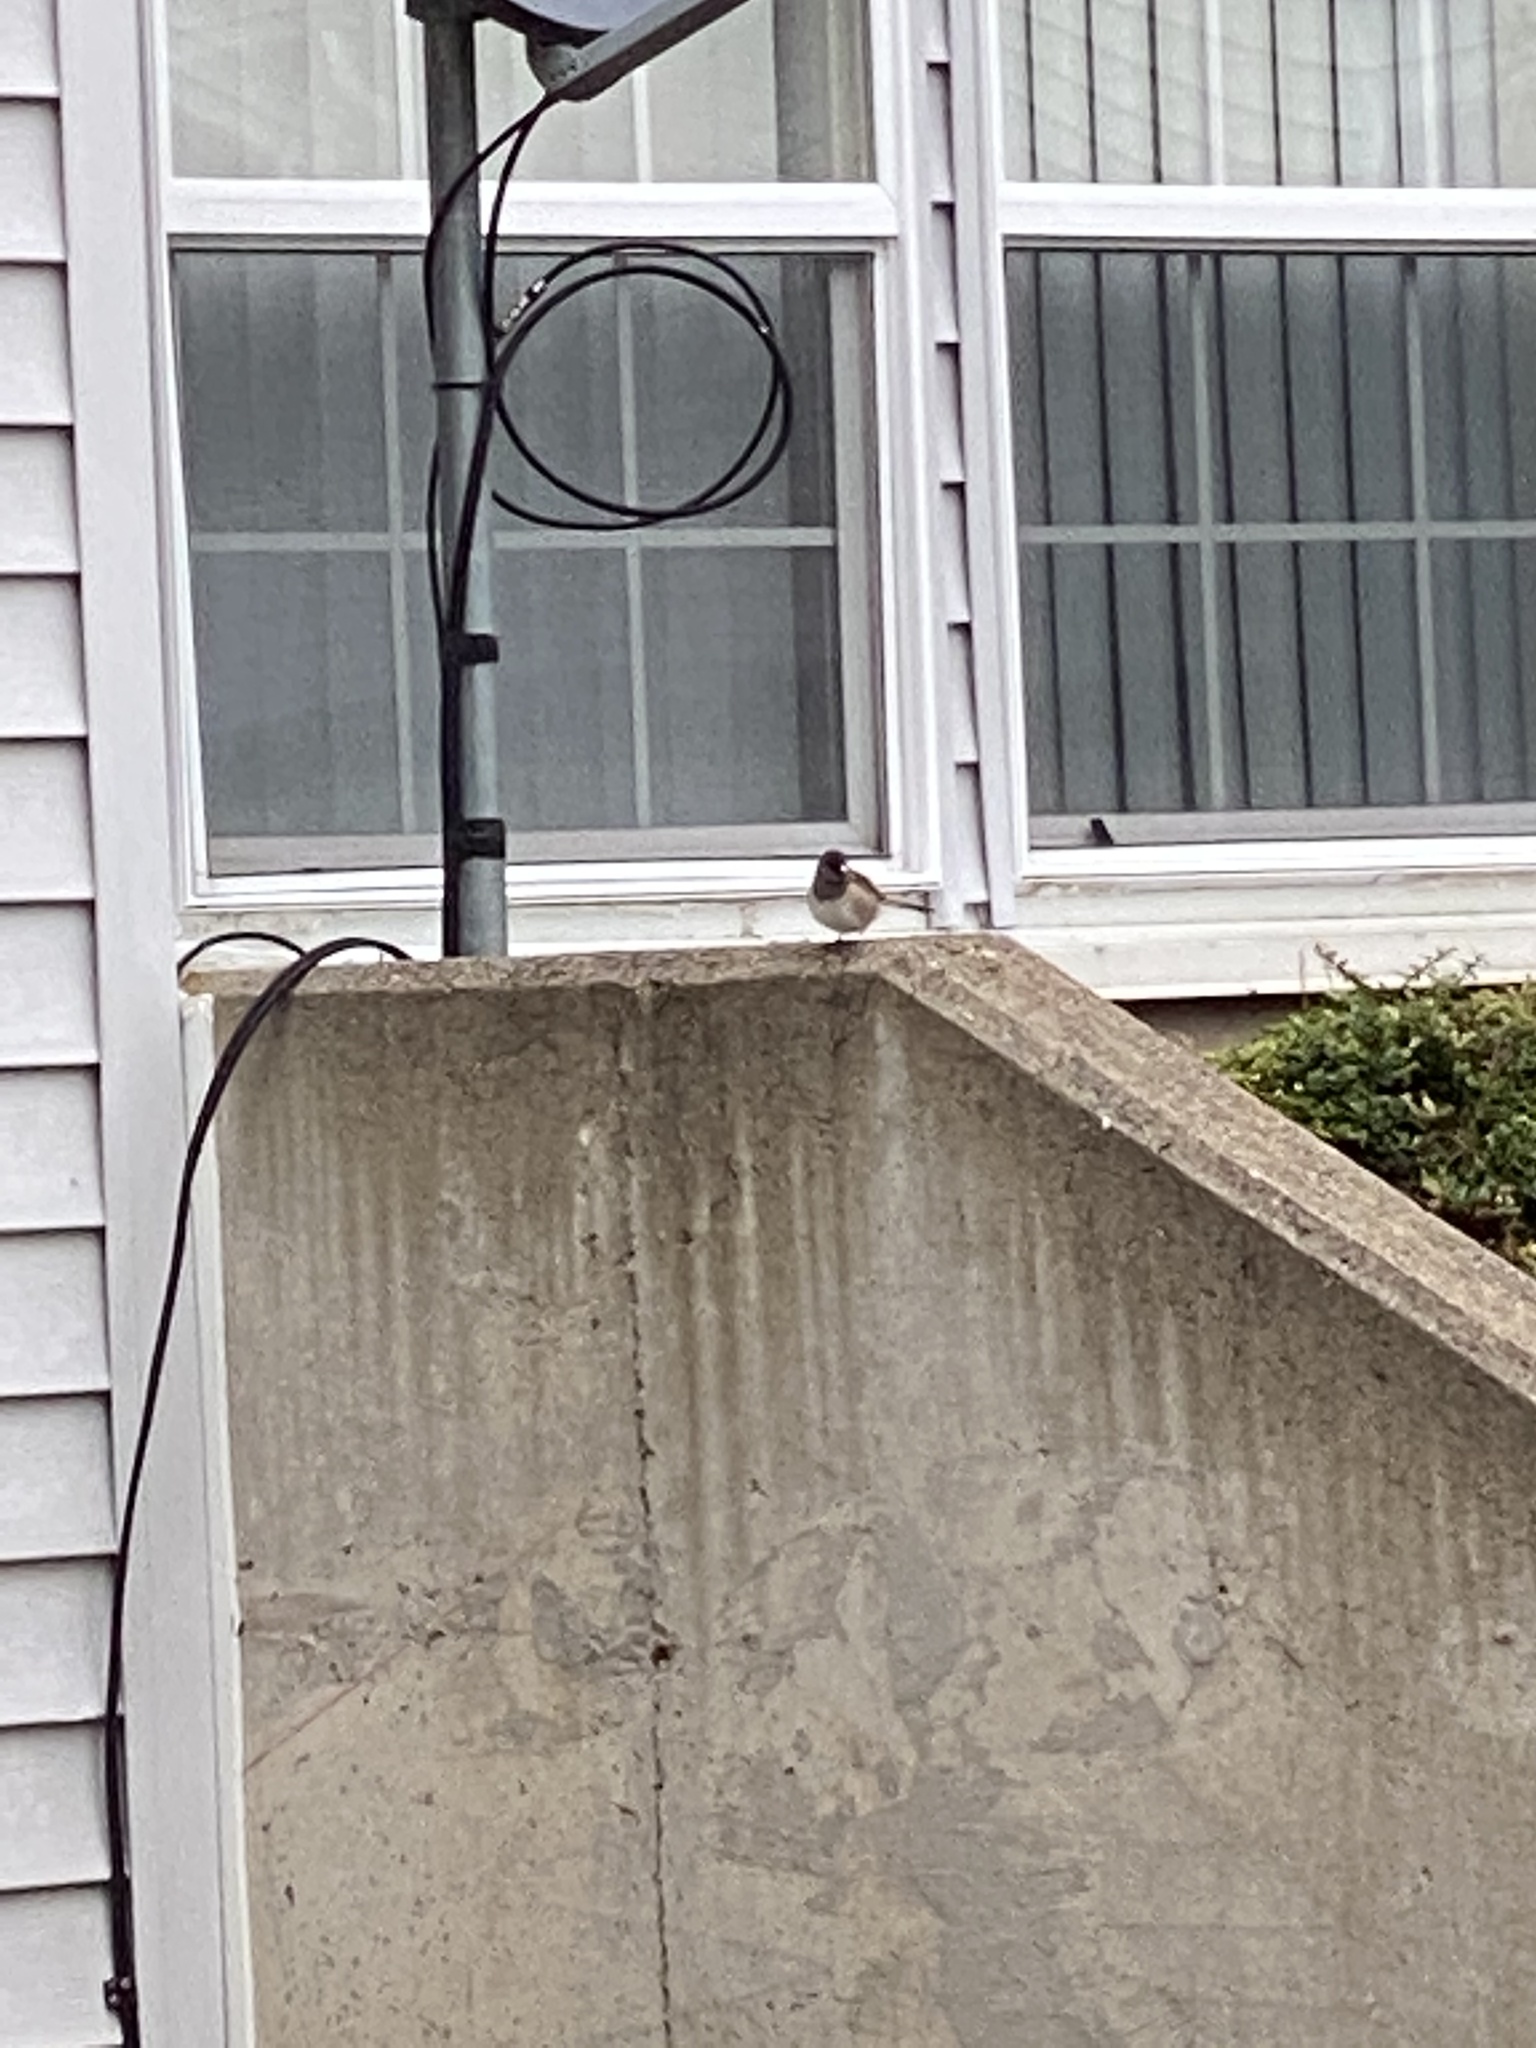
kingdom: Animalia
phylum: Chordata
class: Aves
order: Passeriformes
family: Passerellidae
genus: Junco
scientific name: Junco hyemalis
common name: Dark-eyed junco
